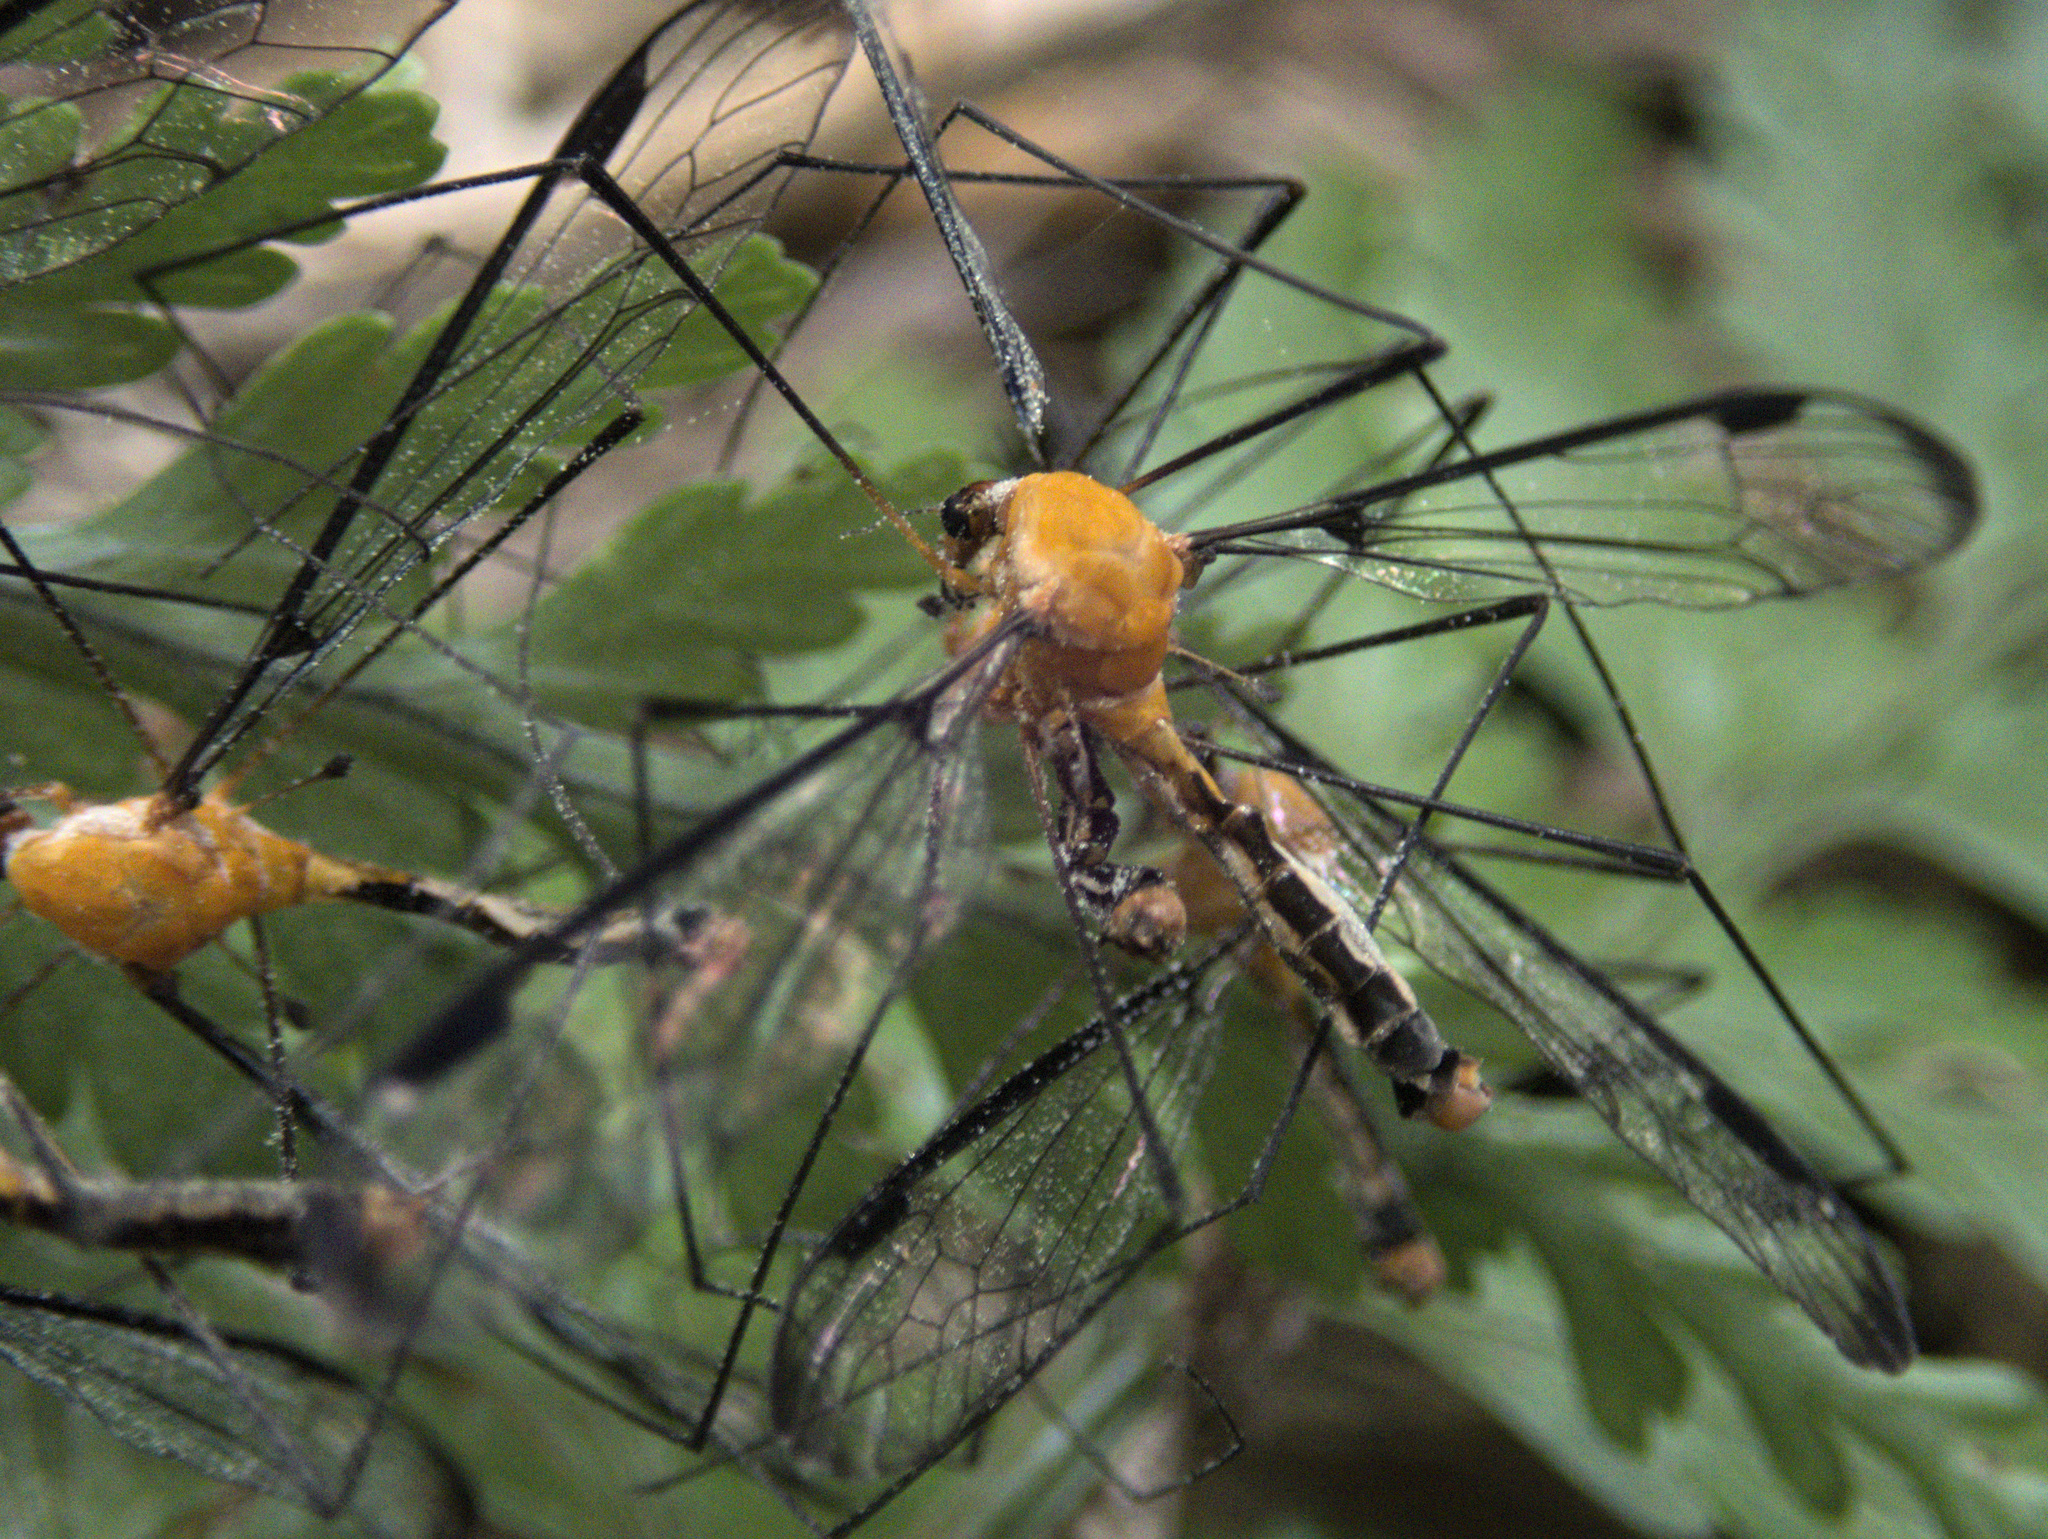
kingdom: Animalia
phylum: Arthropoda
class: Insecta
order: Diptera
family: Tipulidae
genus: Aurotipula
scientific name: Aurotipula
